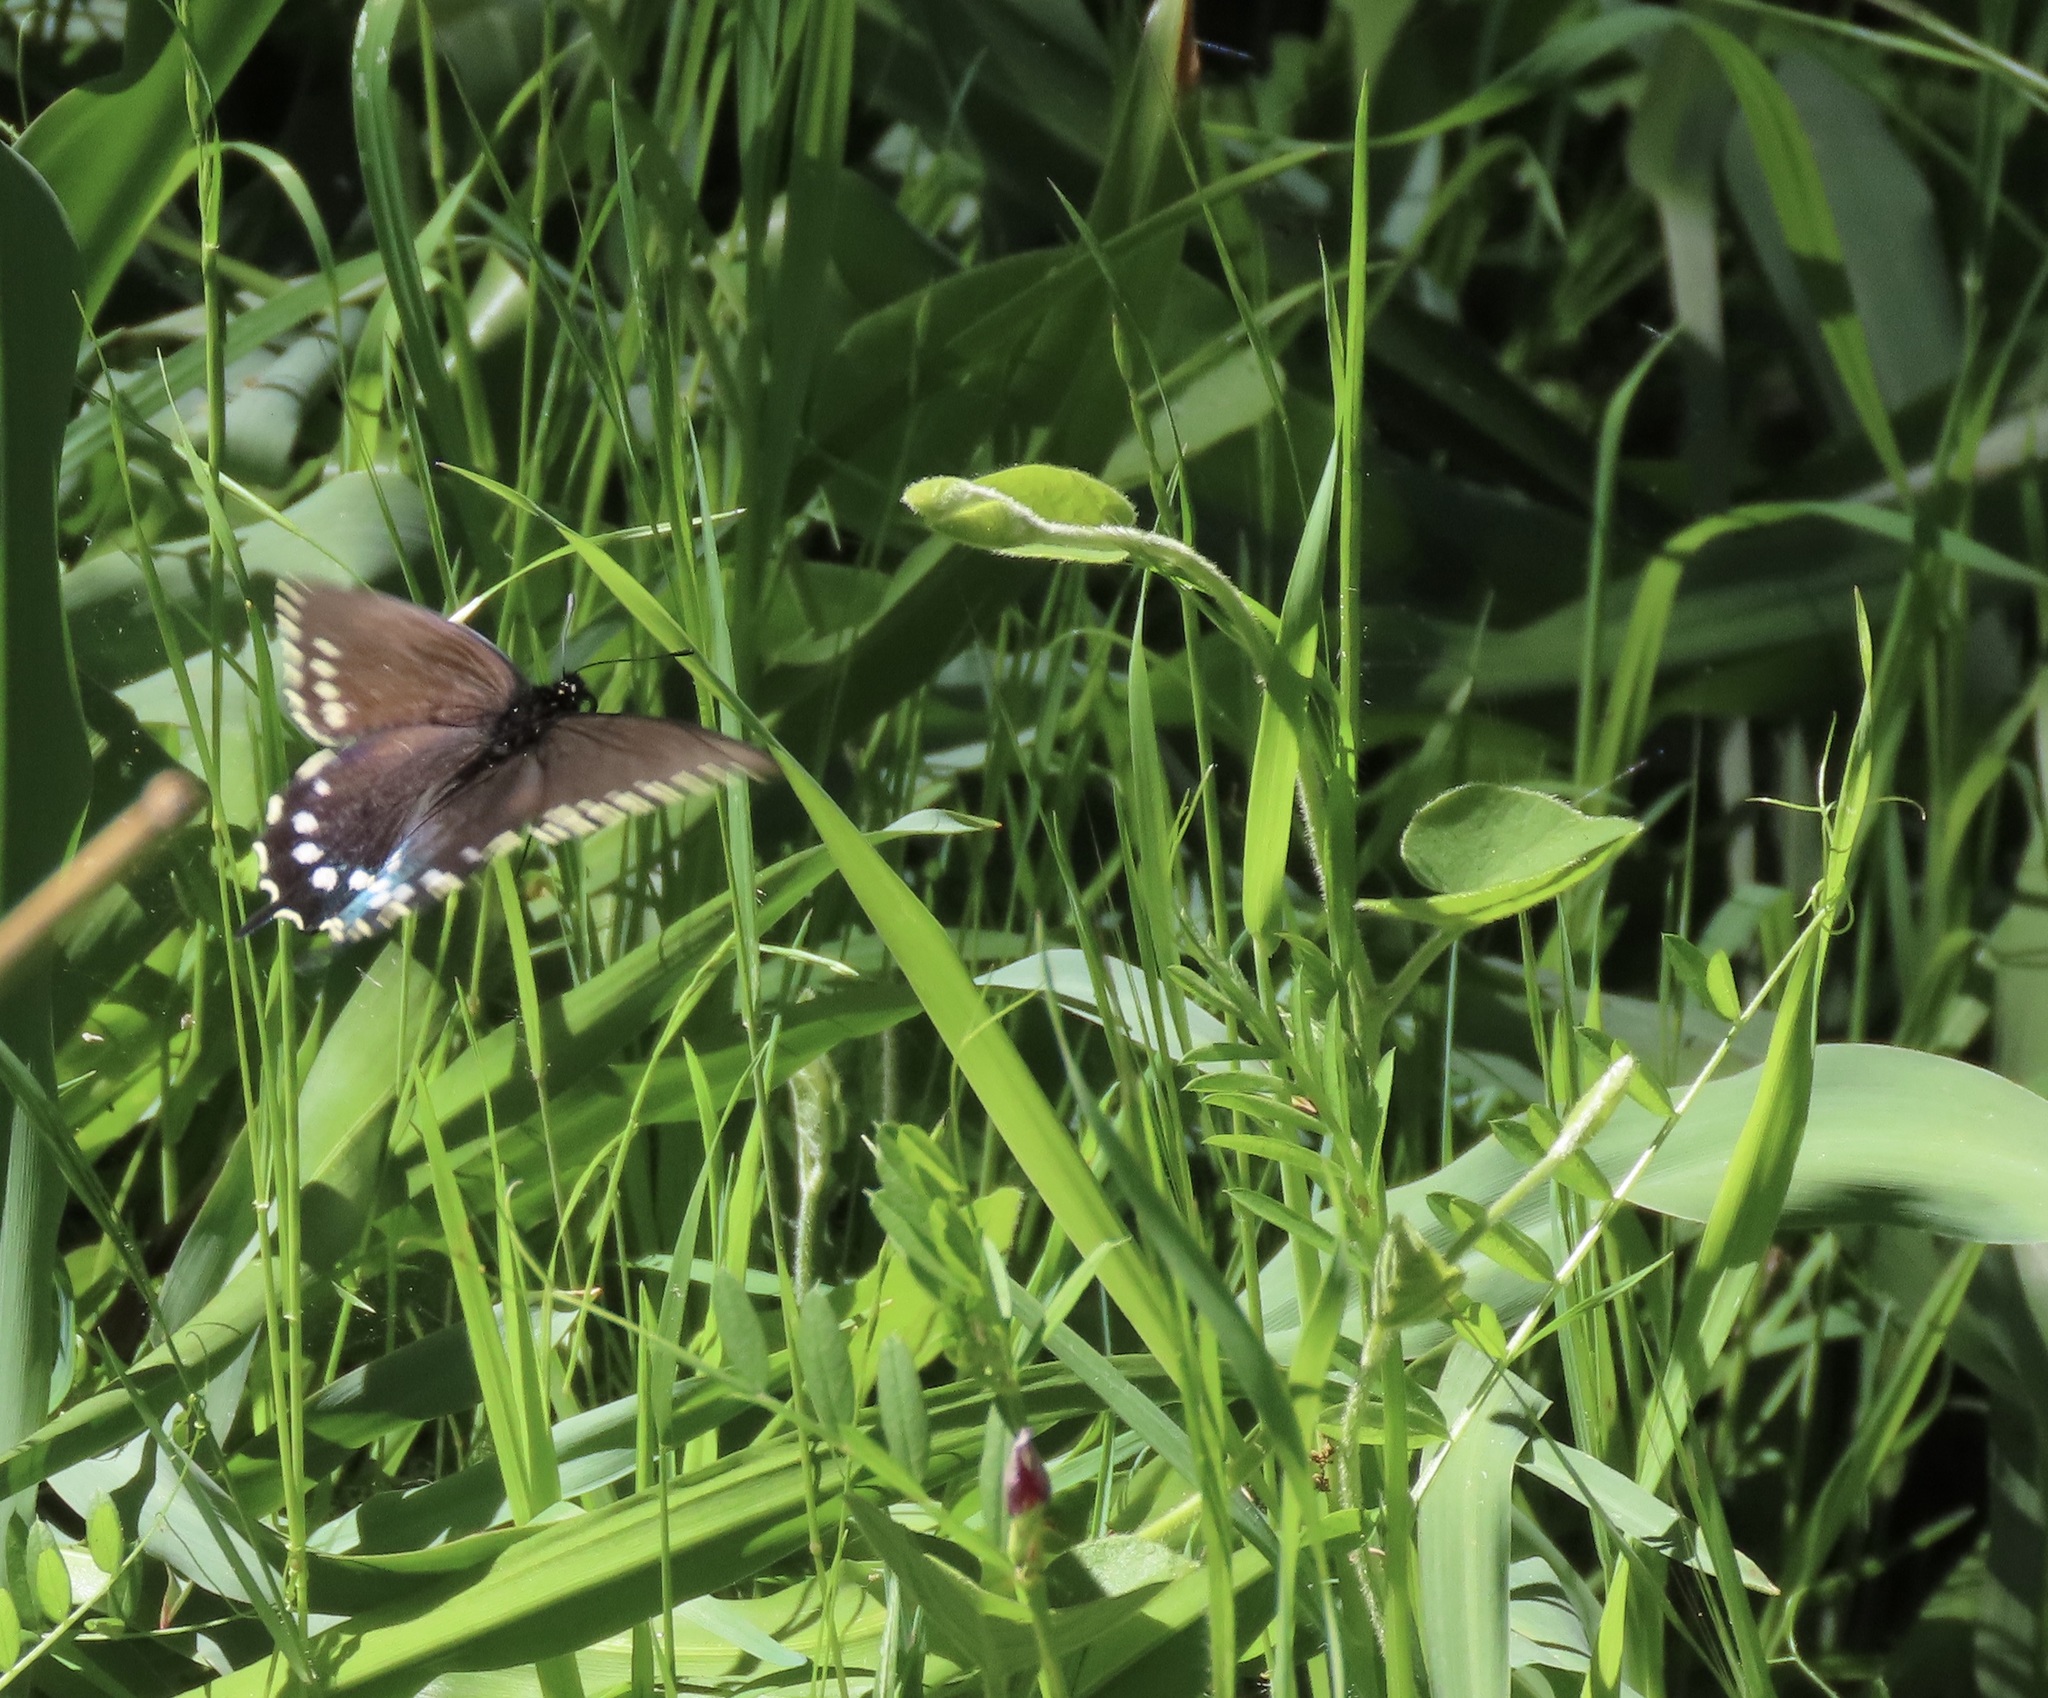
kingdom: Animalia
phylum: Arthropoda
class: Insecta
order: Lepidoptera
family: Papilionidae
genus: Battus
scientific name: Battus philenor
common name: Pipevine swallowtail
